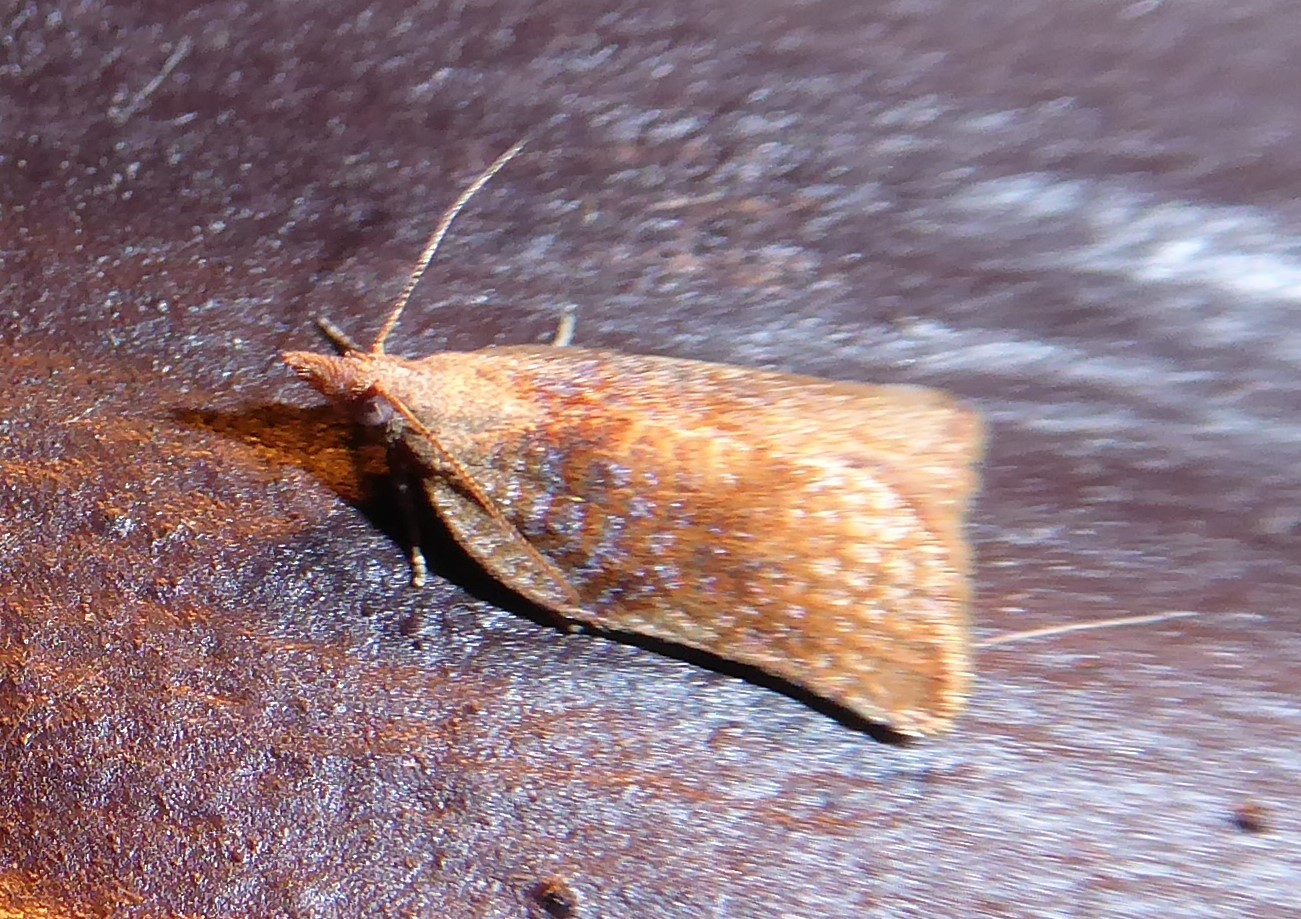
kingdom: Animalia
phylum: Arthropoda
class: Insecta
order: Lepidoptera
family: Tortricidae
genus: Catamacta
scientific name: Catamacta gavisana
